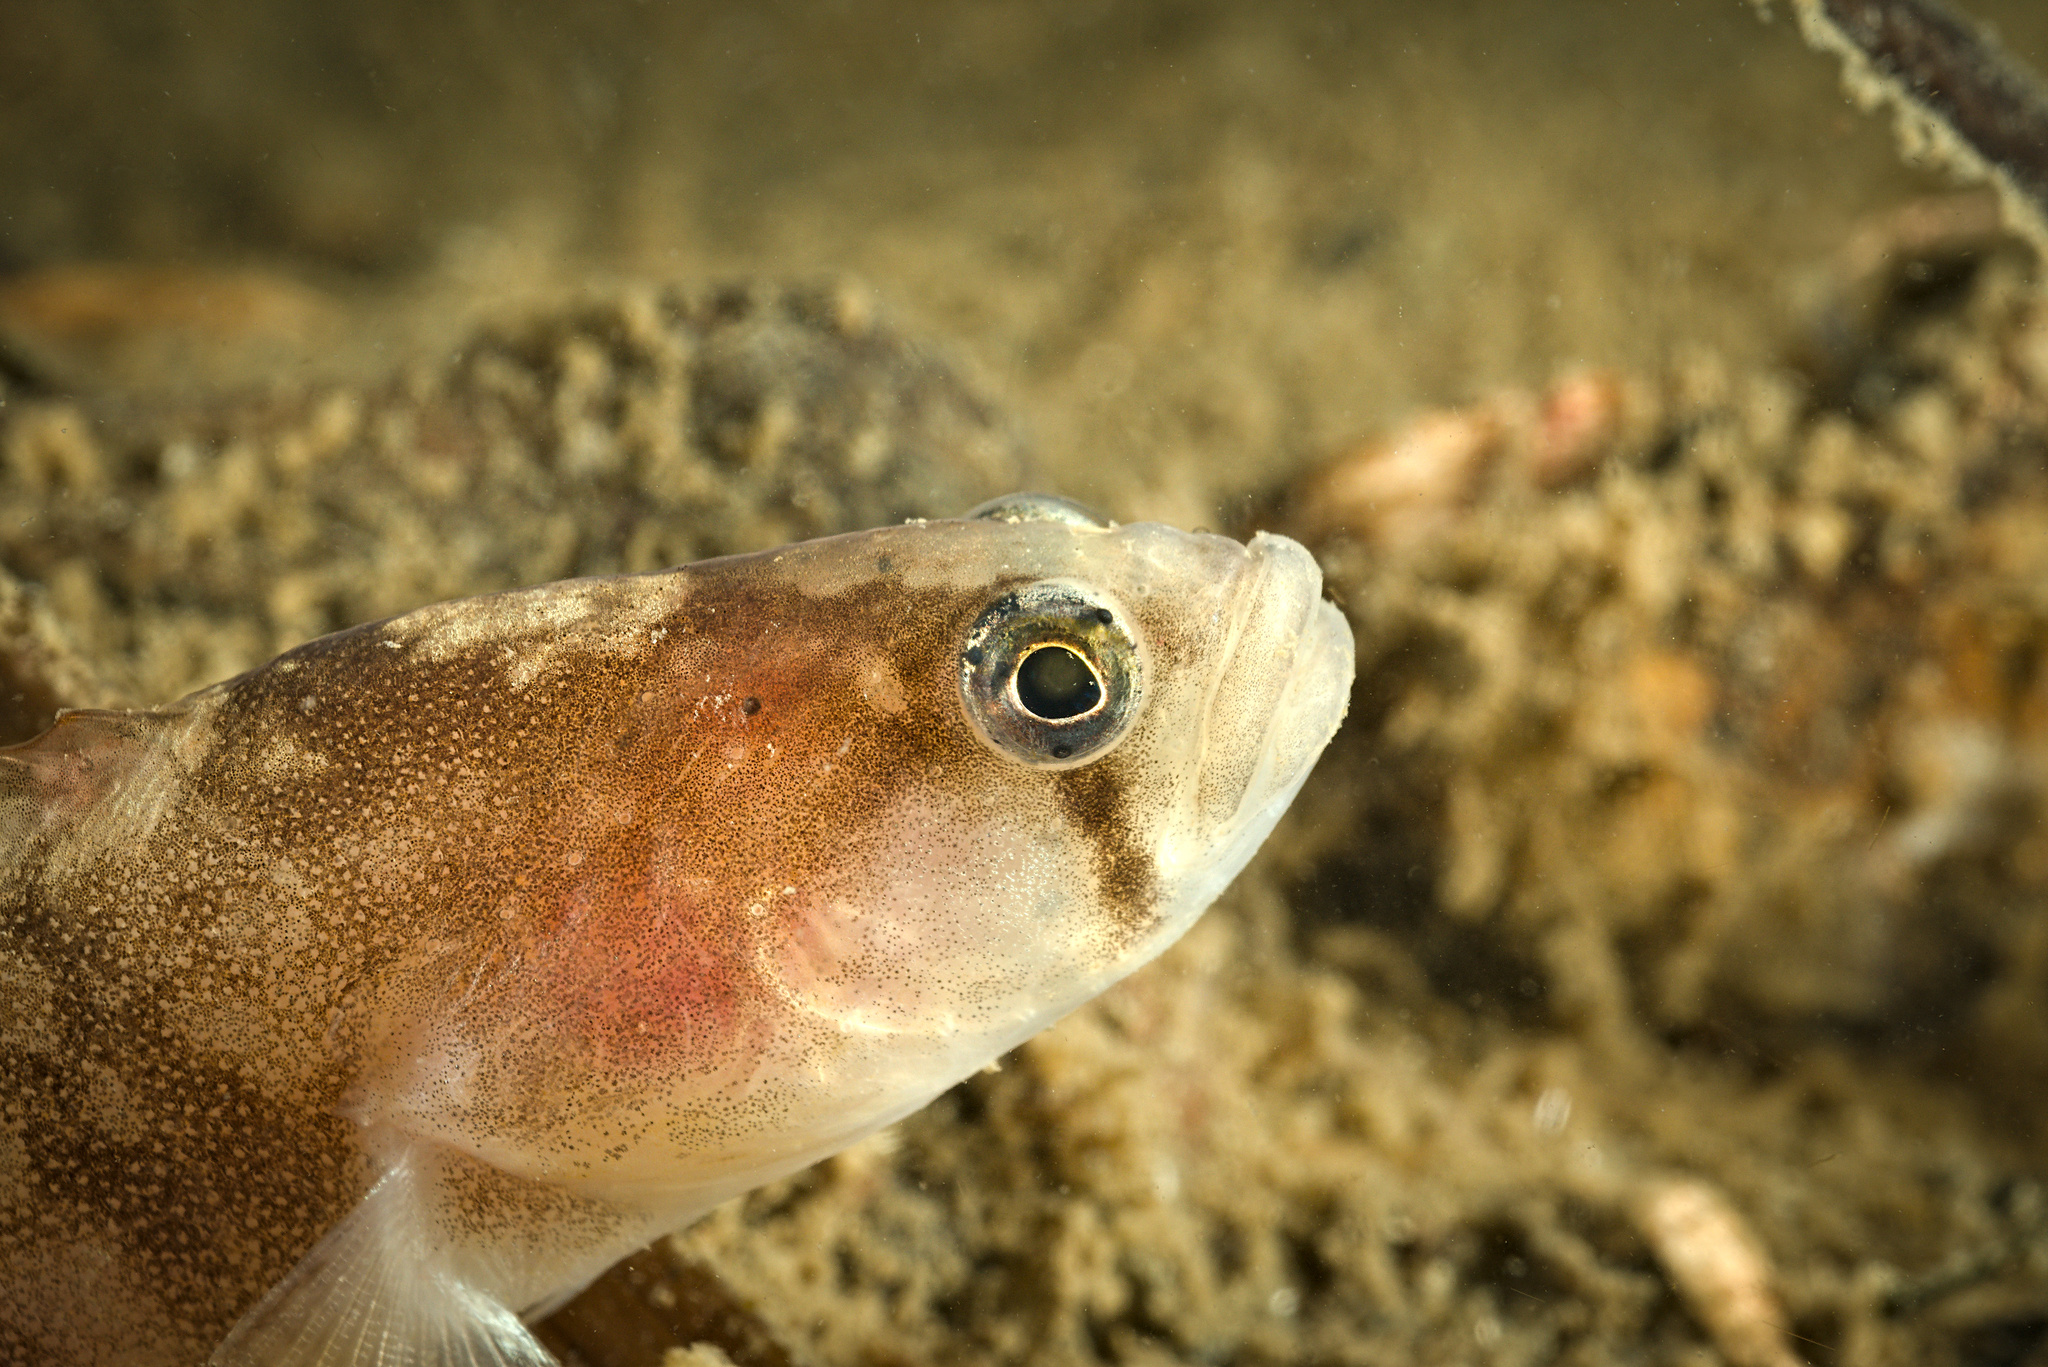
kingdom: Animalia
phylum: Chordata
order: Perciformes
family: Pholidae
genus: Pholis
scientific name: Pholis gunnellus
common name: Butterfish
